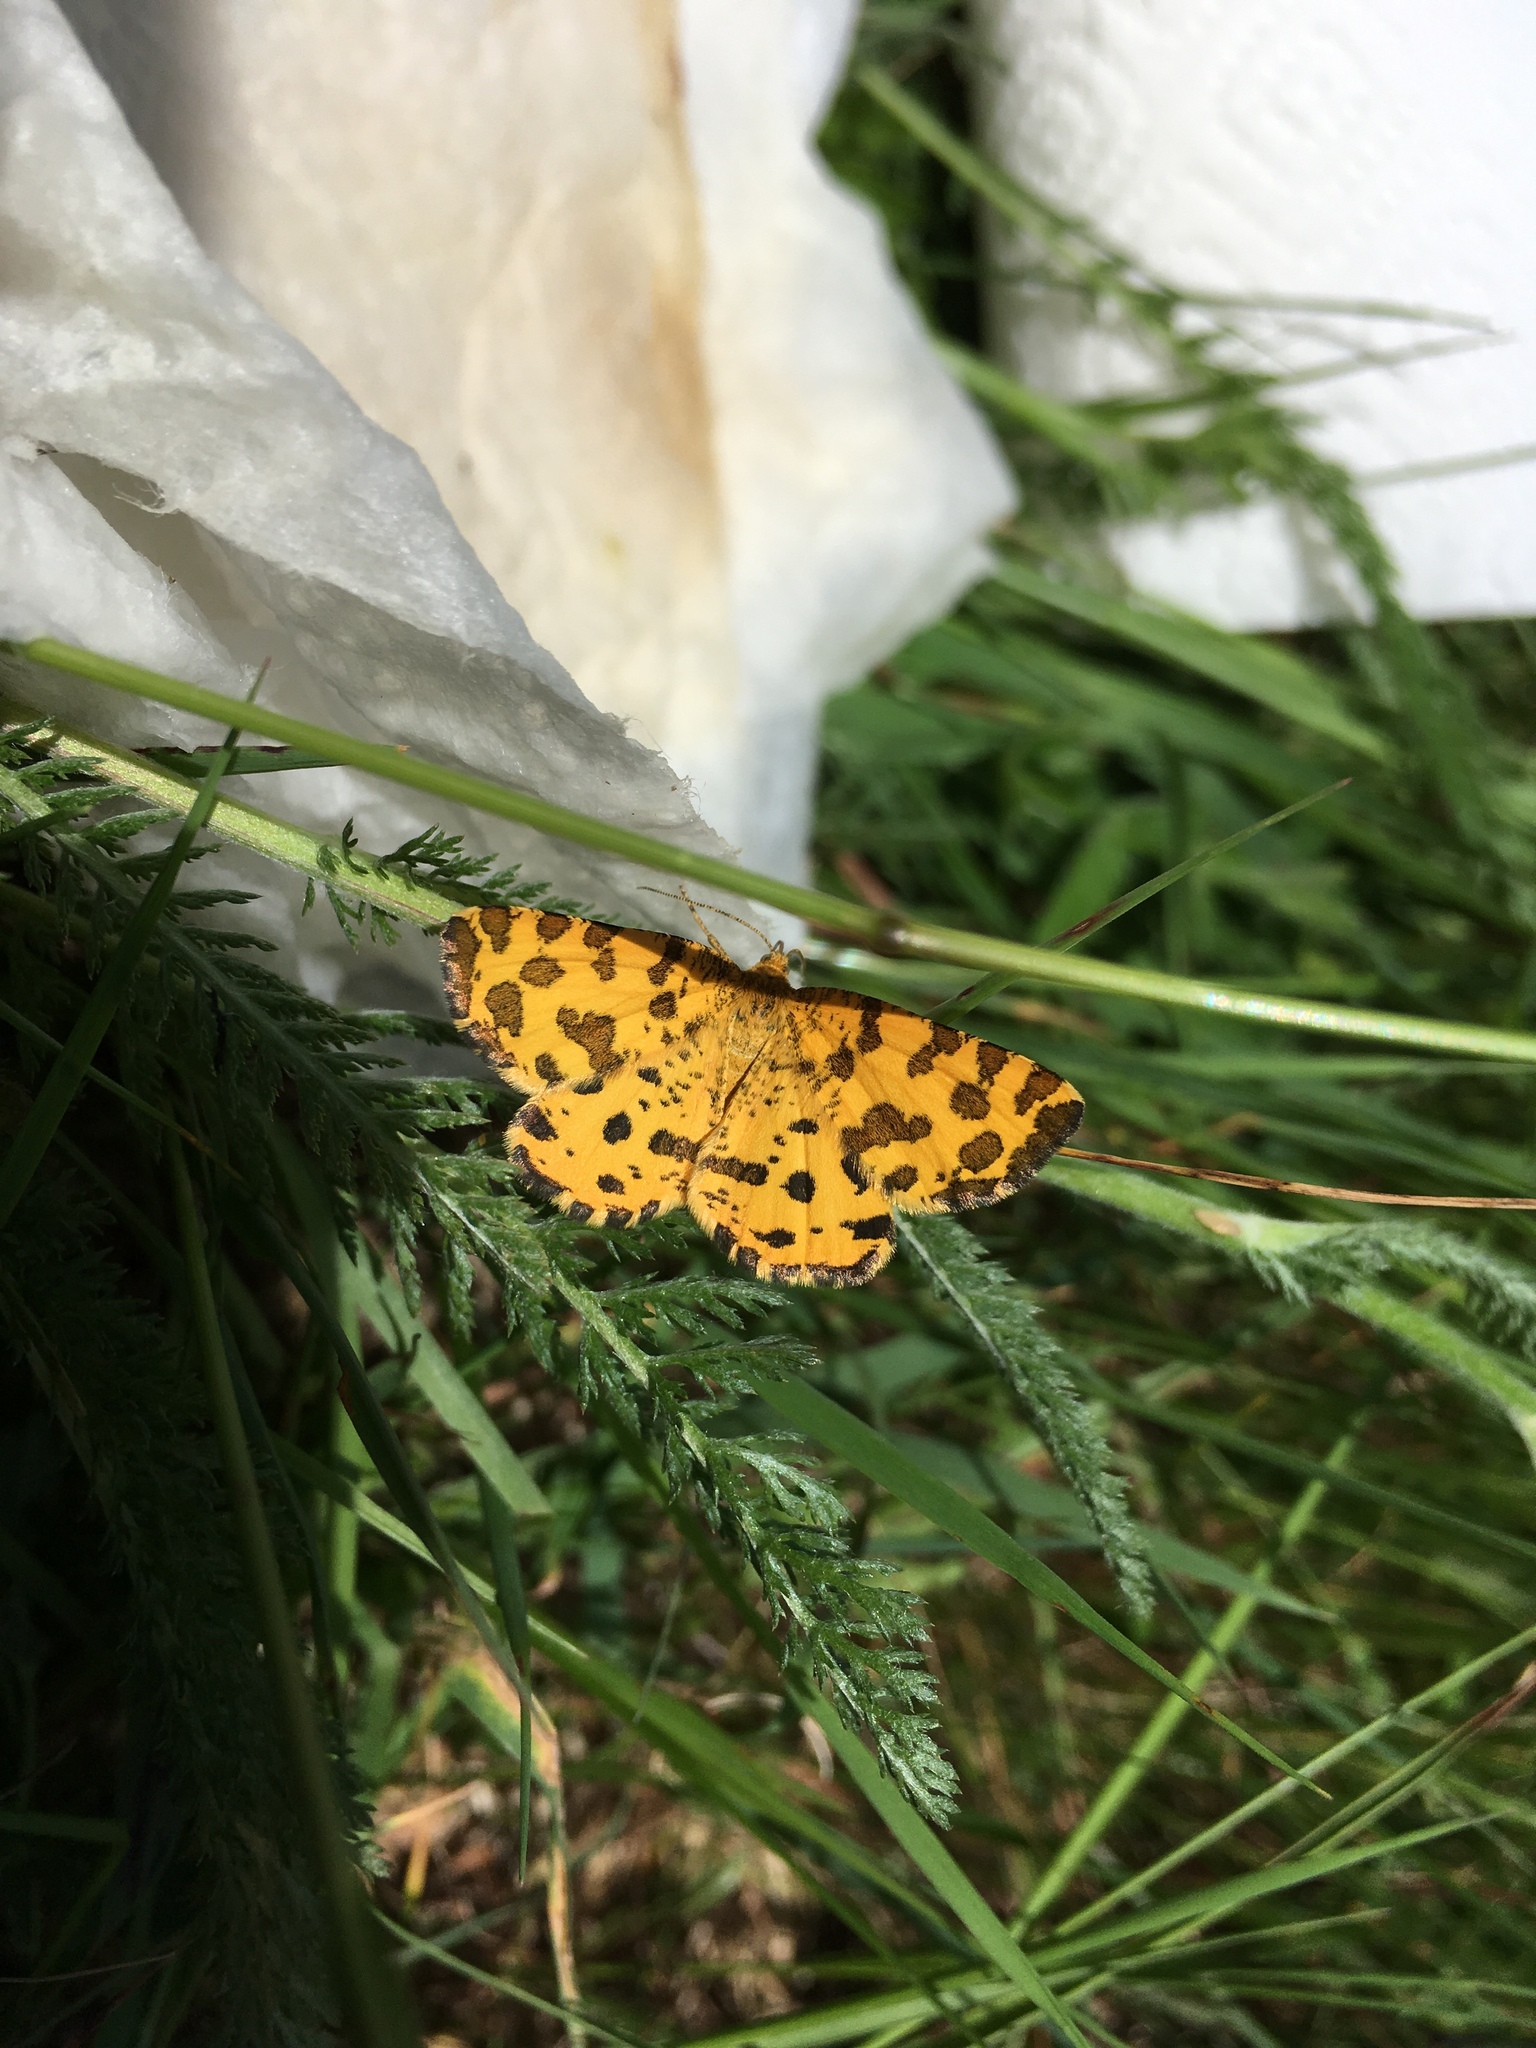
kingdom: Animalia
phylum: Arthropoda
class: Insecta
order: Lepidoptera
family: Geometridae
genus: Pseudopanthera
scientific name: Pseudopanthera macularia
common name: Speckled yellow
